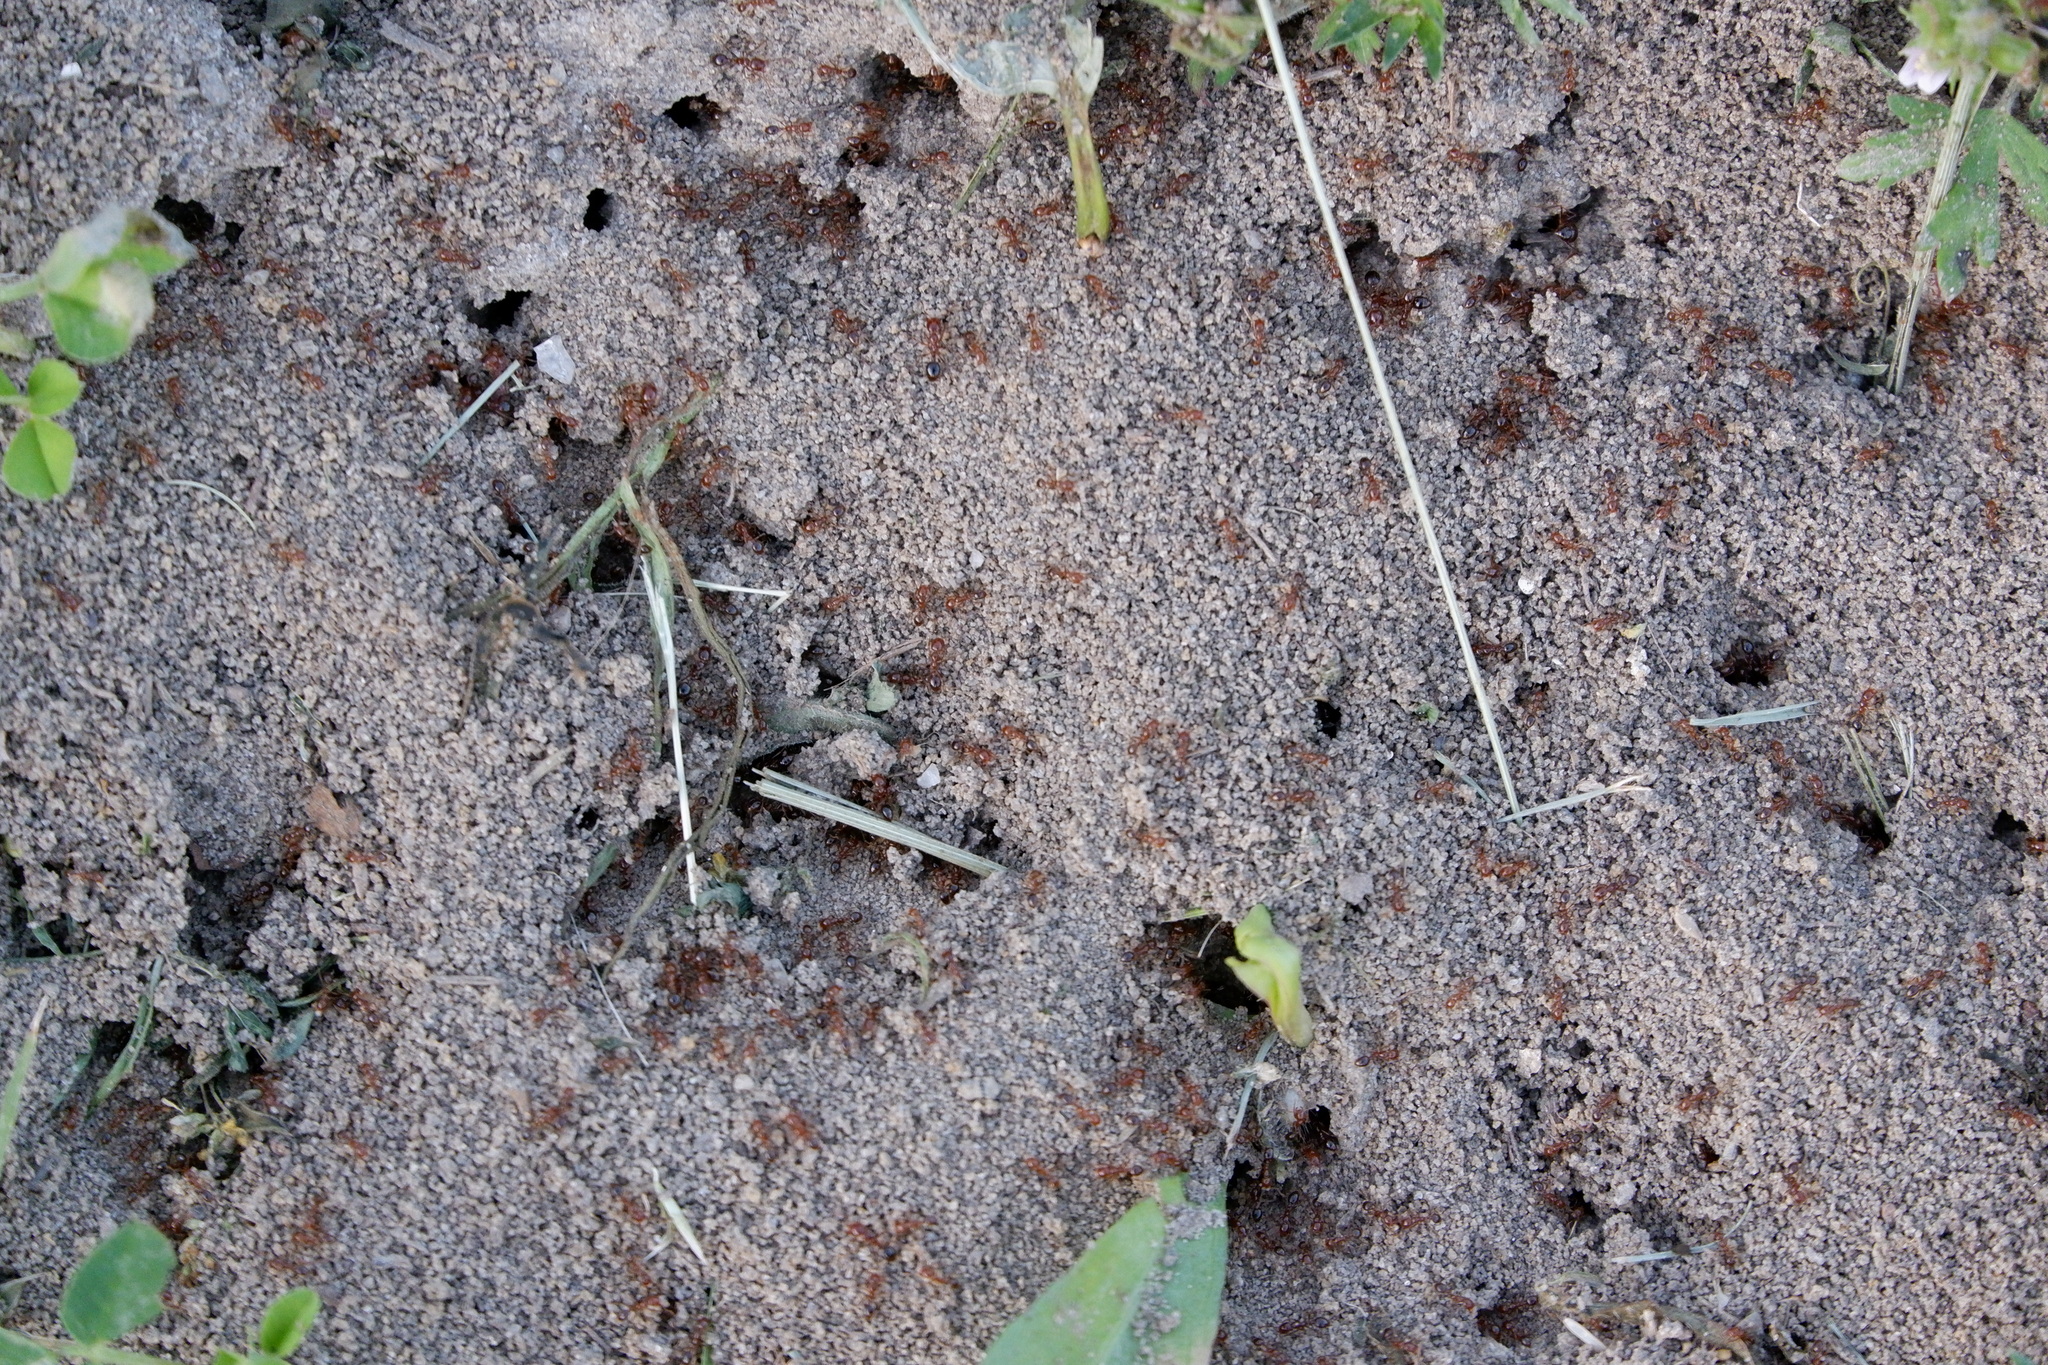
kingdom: Animalia
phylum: Arthropoda
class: Insecta
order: Hymenoptera
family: Formicidae
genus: Solenopsis
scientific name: Solenopsis invicta
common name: Red imported fire ant
